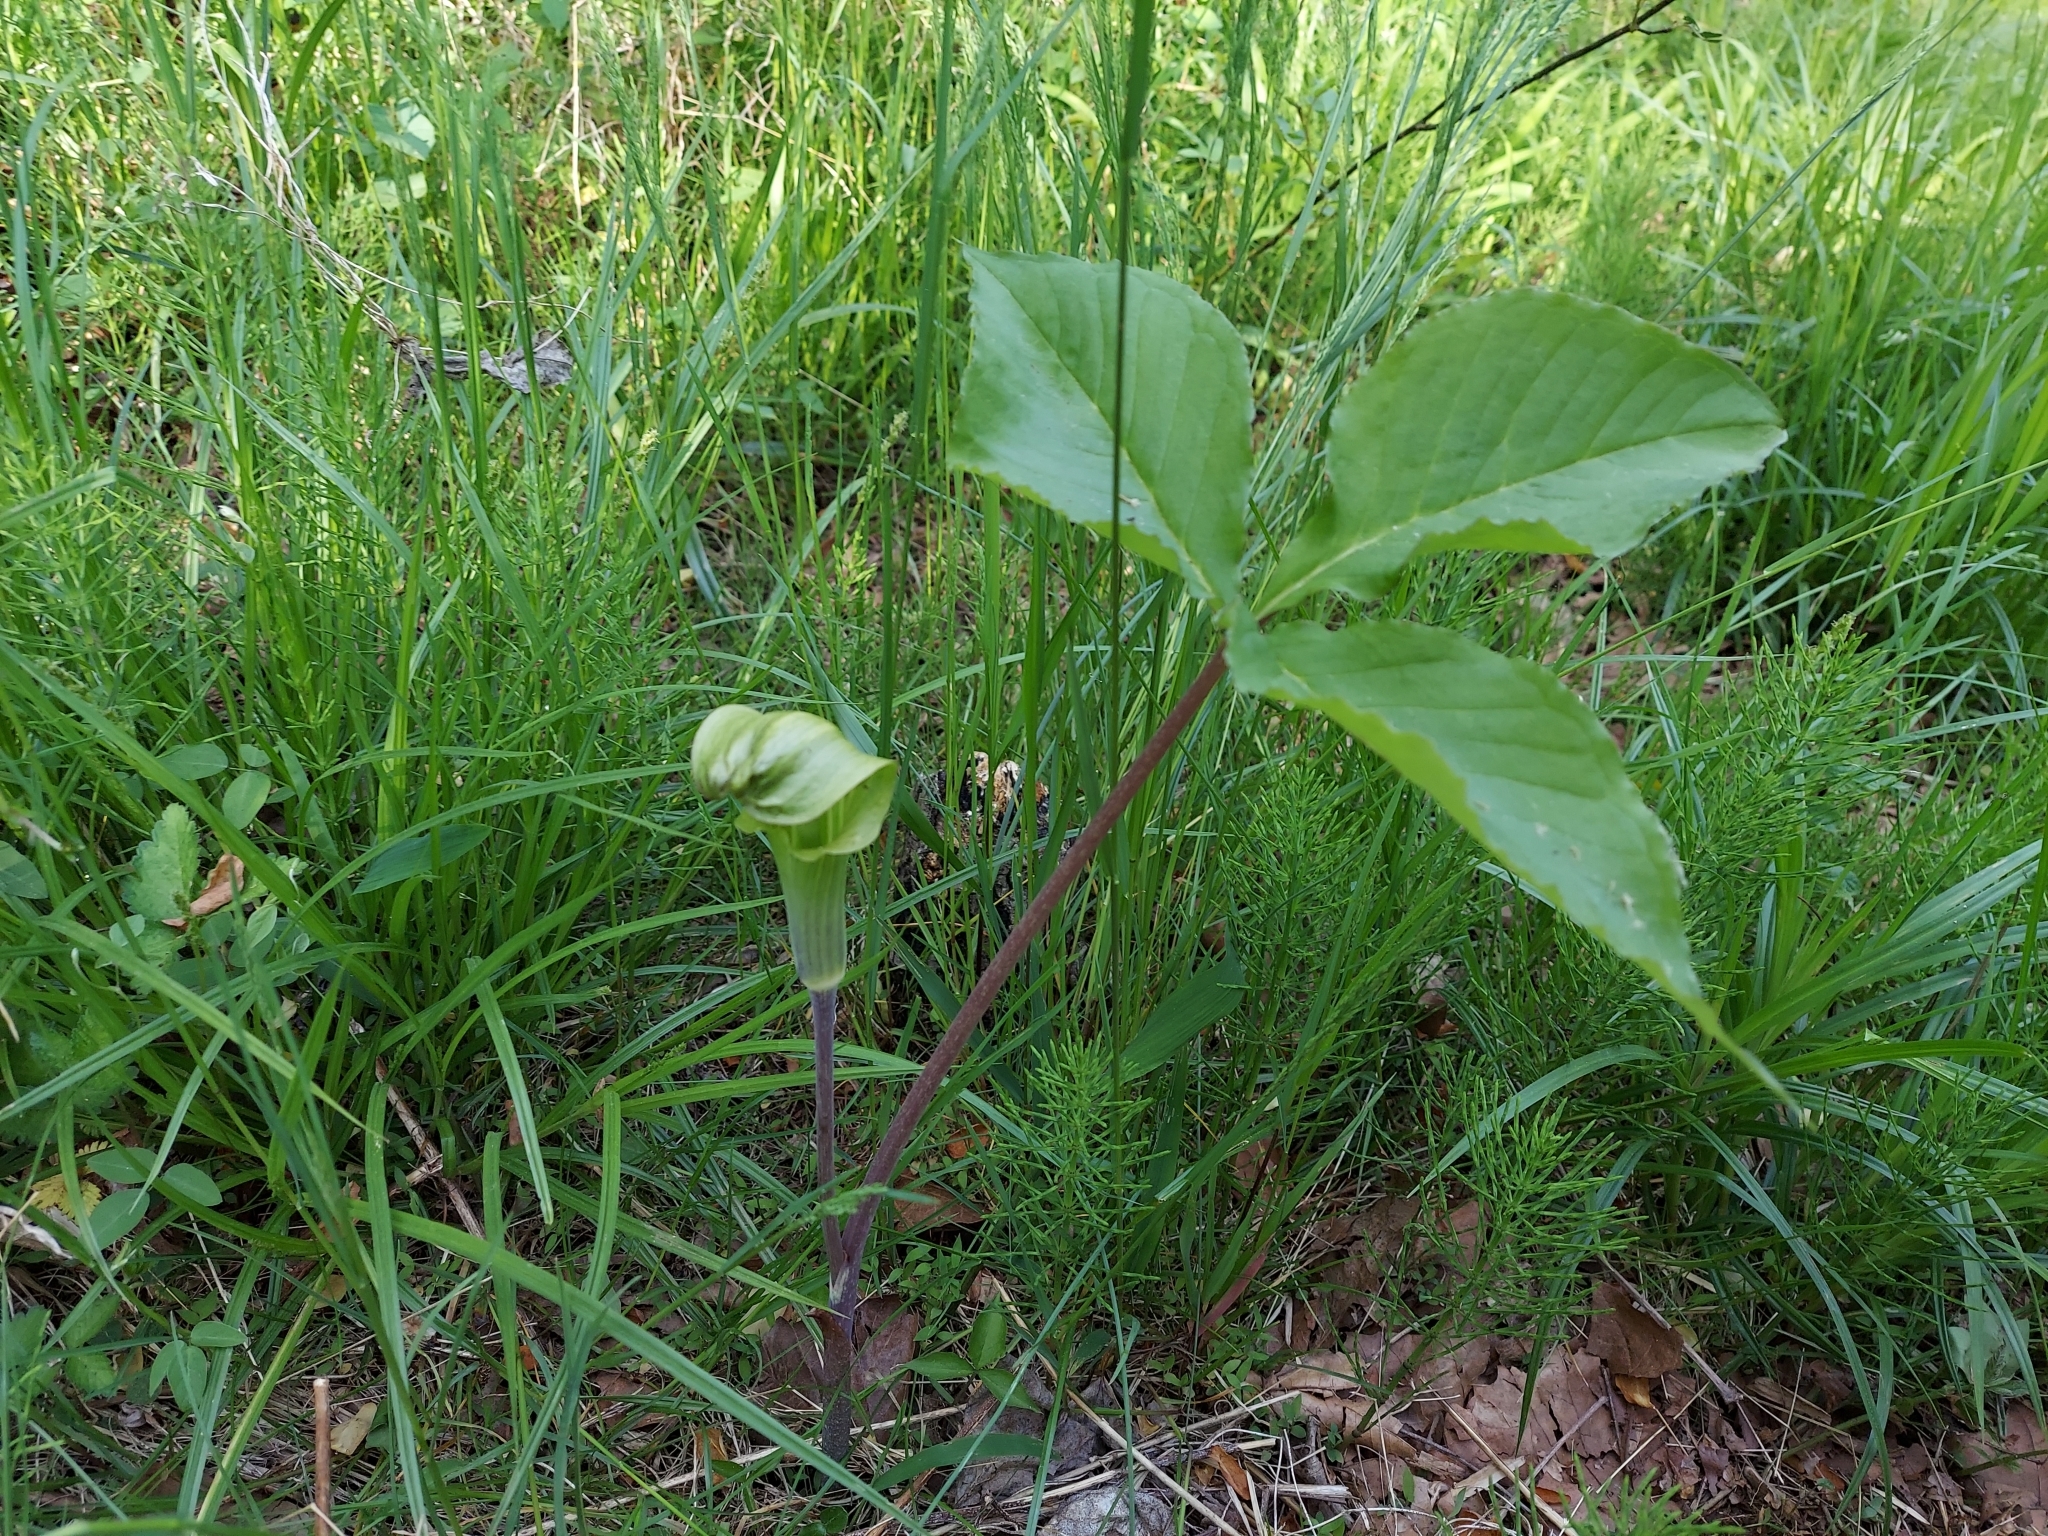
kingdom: Plantae
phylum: Tracheophyta
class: Liliopsida
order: Alismatales
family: Araceae
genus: Arisaema
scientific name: Arisaema triphyllum
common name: Jack-in-the-pulpit
